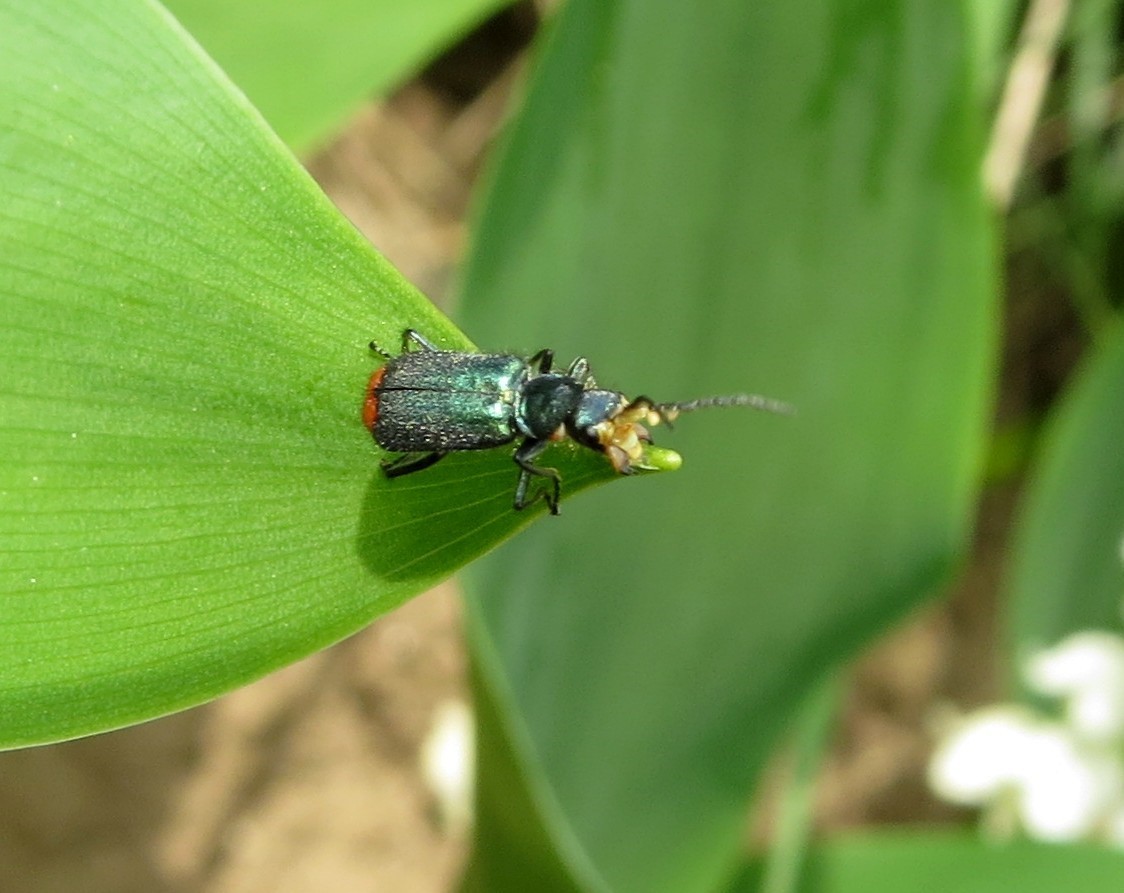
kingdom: Animalia
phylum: Arthropoda
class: Insecta
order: Coleoptera
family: Melyridae
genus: Malachius
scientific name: Malachius bipustulatus
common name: Malachite beetle
